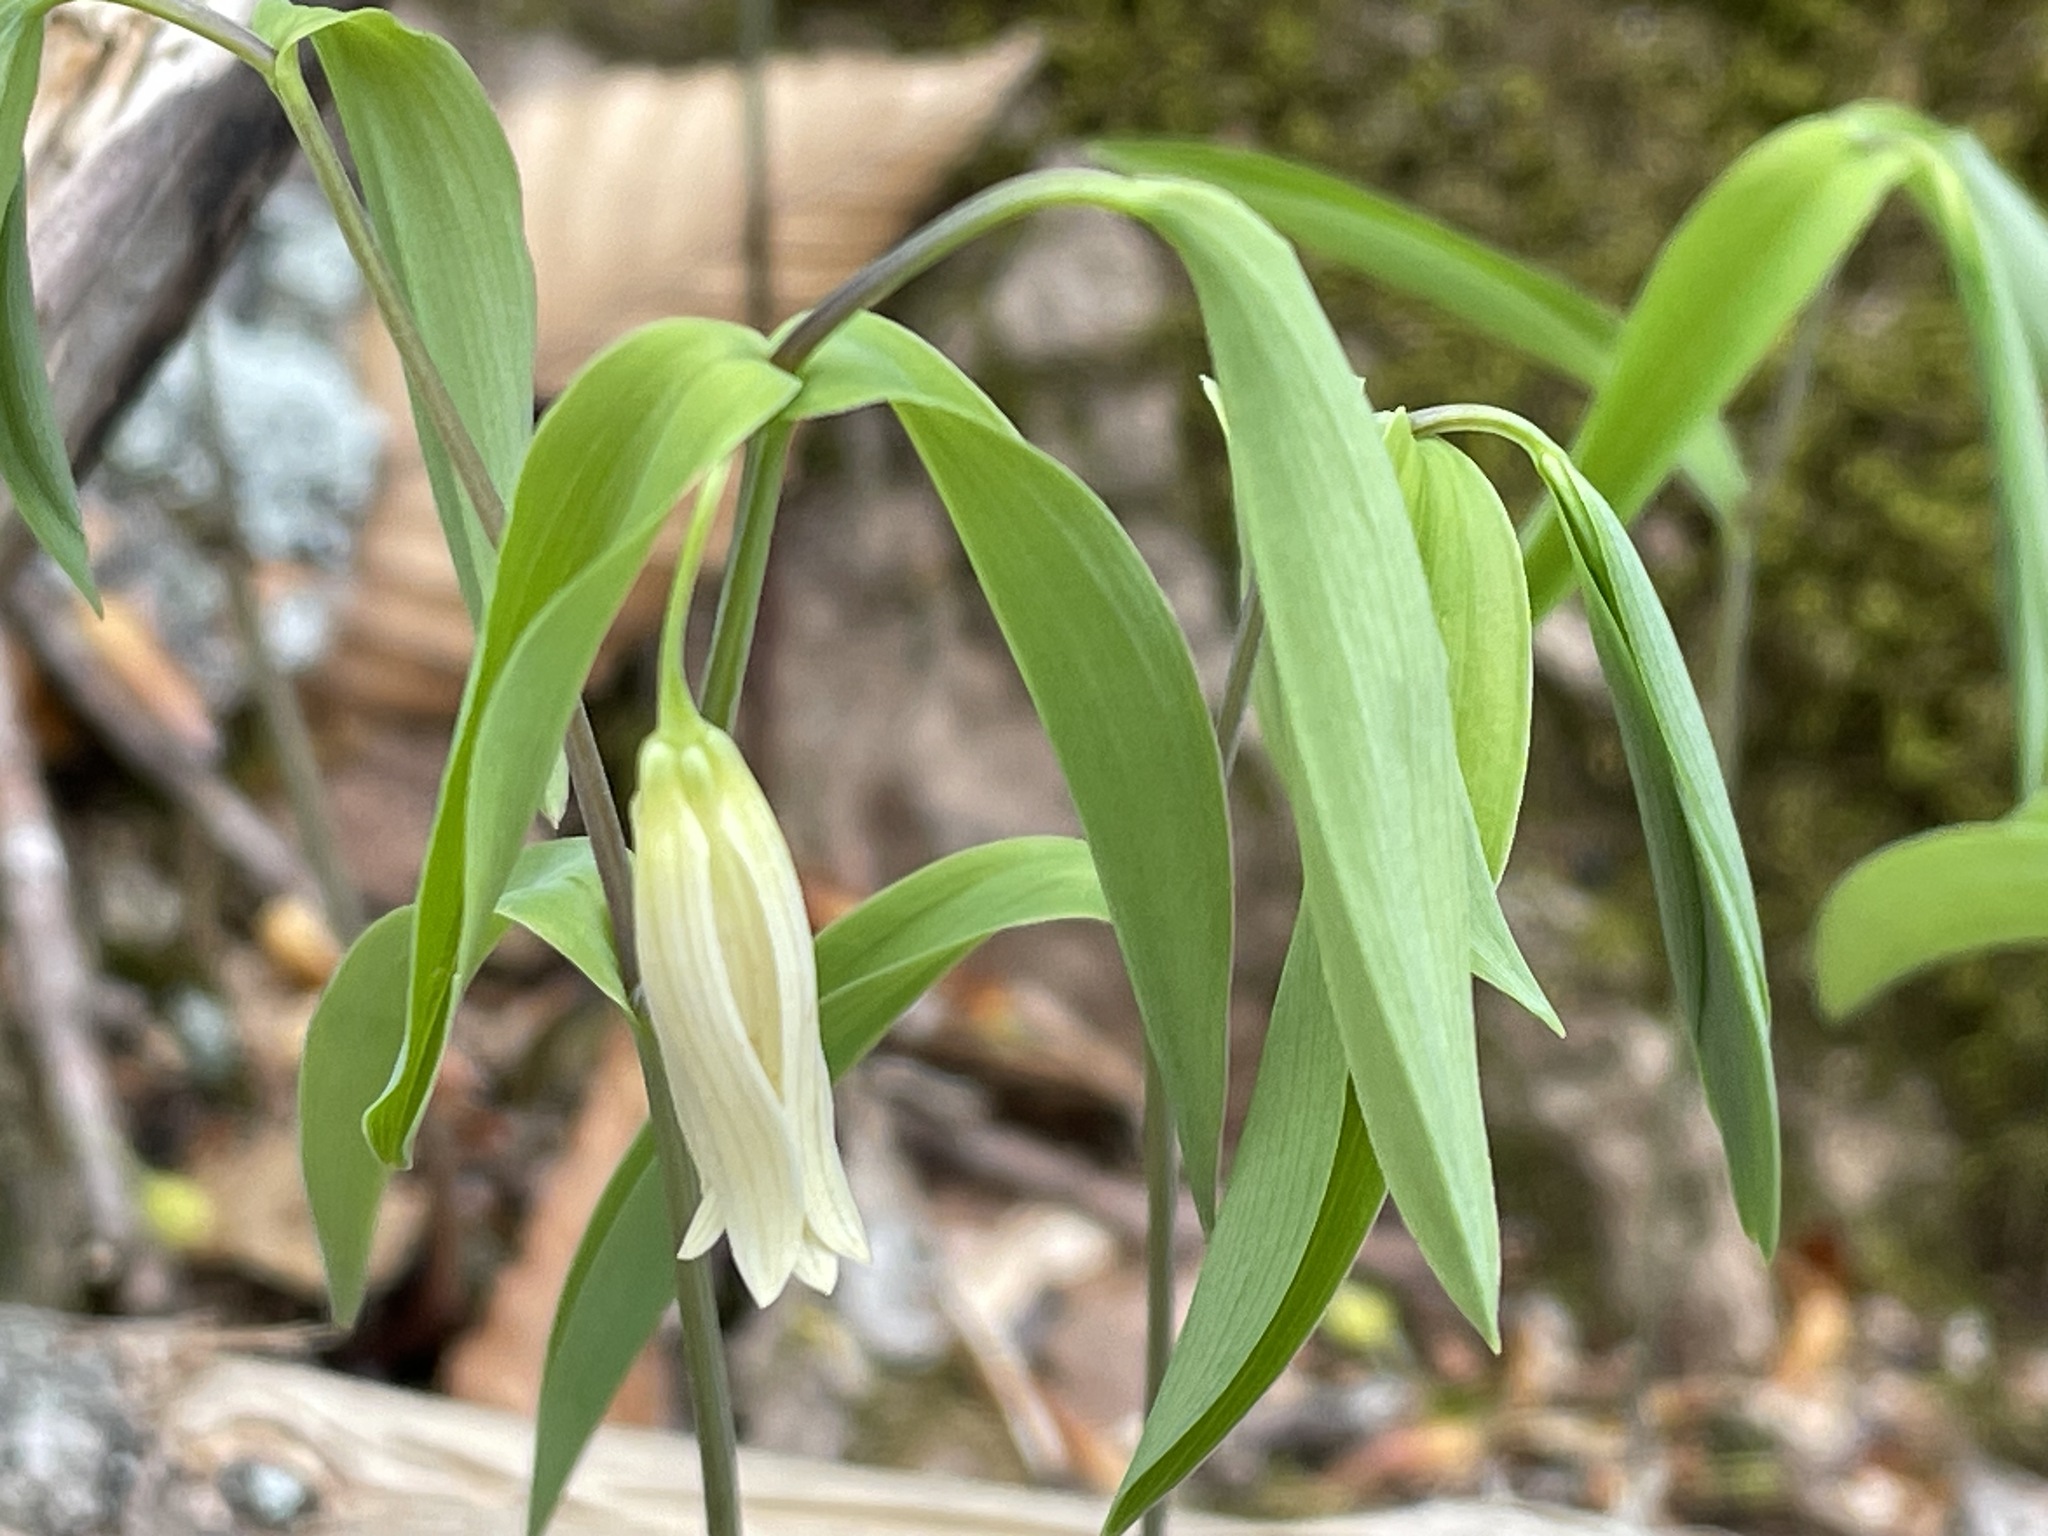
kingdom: Plantae
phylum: Tracheophyta
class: Liliopsida
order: Liliales
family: Colchicaceae
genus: Uvularia
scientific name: Uvularia sessilifolia
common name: Straw-lily
